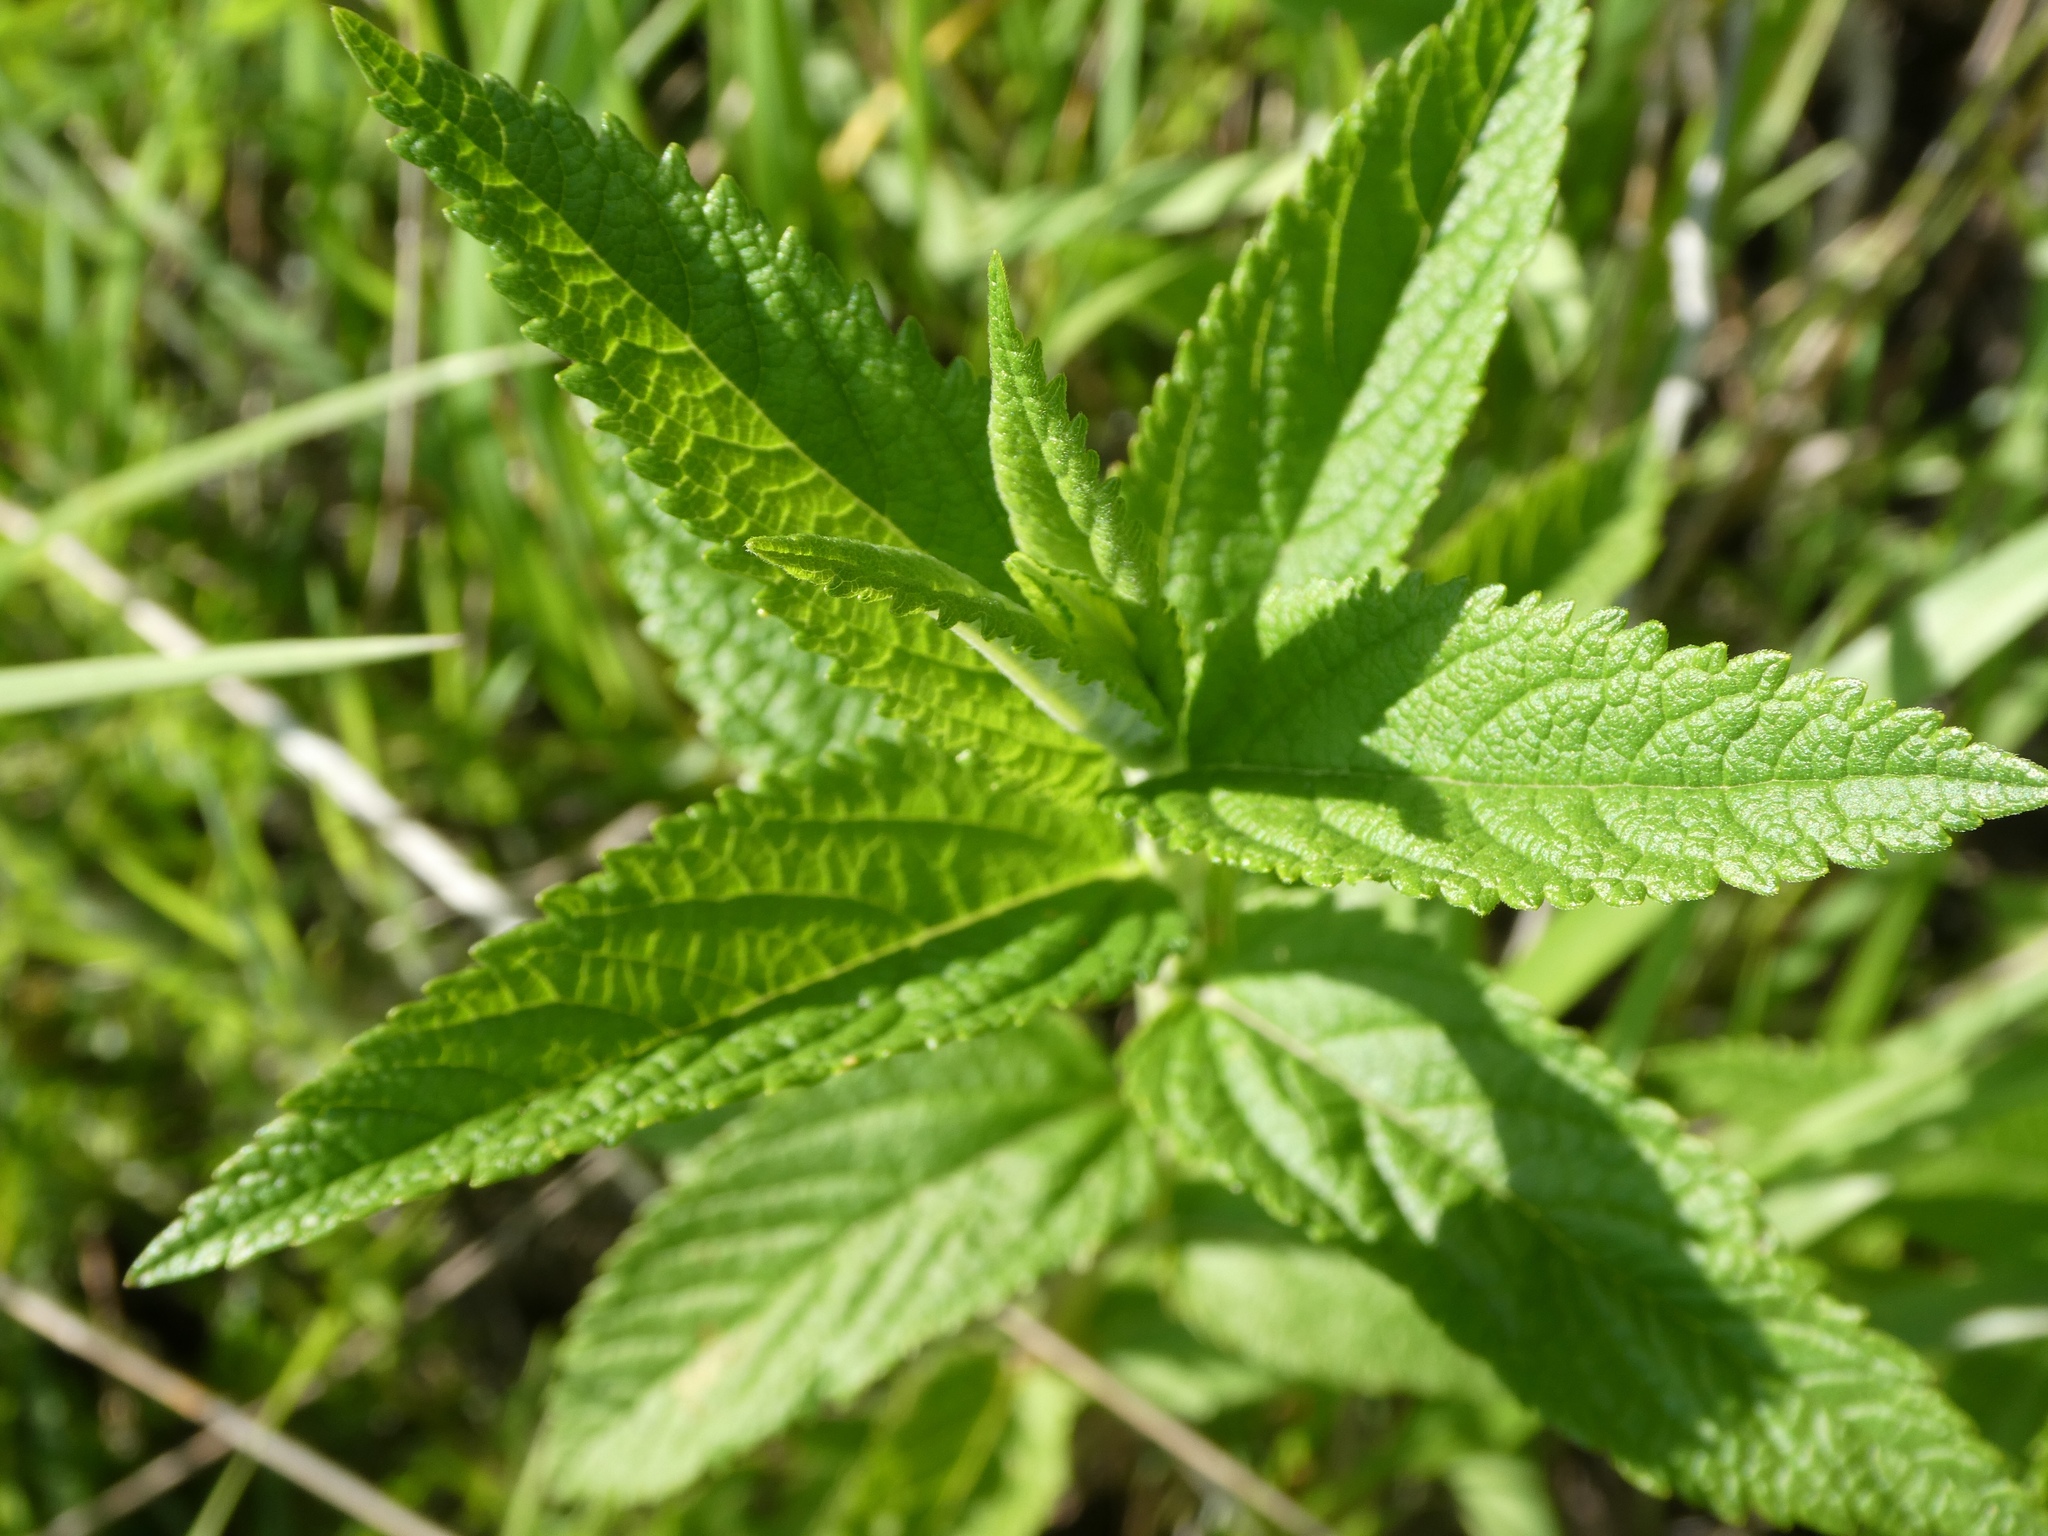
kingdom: Plantae
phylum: Tracheophyta
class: Magnoliopsida
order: Lamiales
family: Lamiaceae
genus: Teucrium
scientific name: Teucrium canadense
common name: American germander
